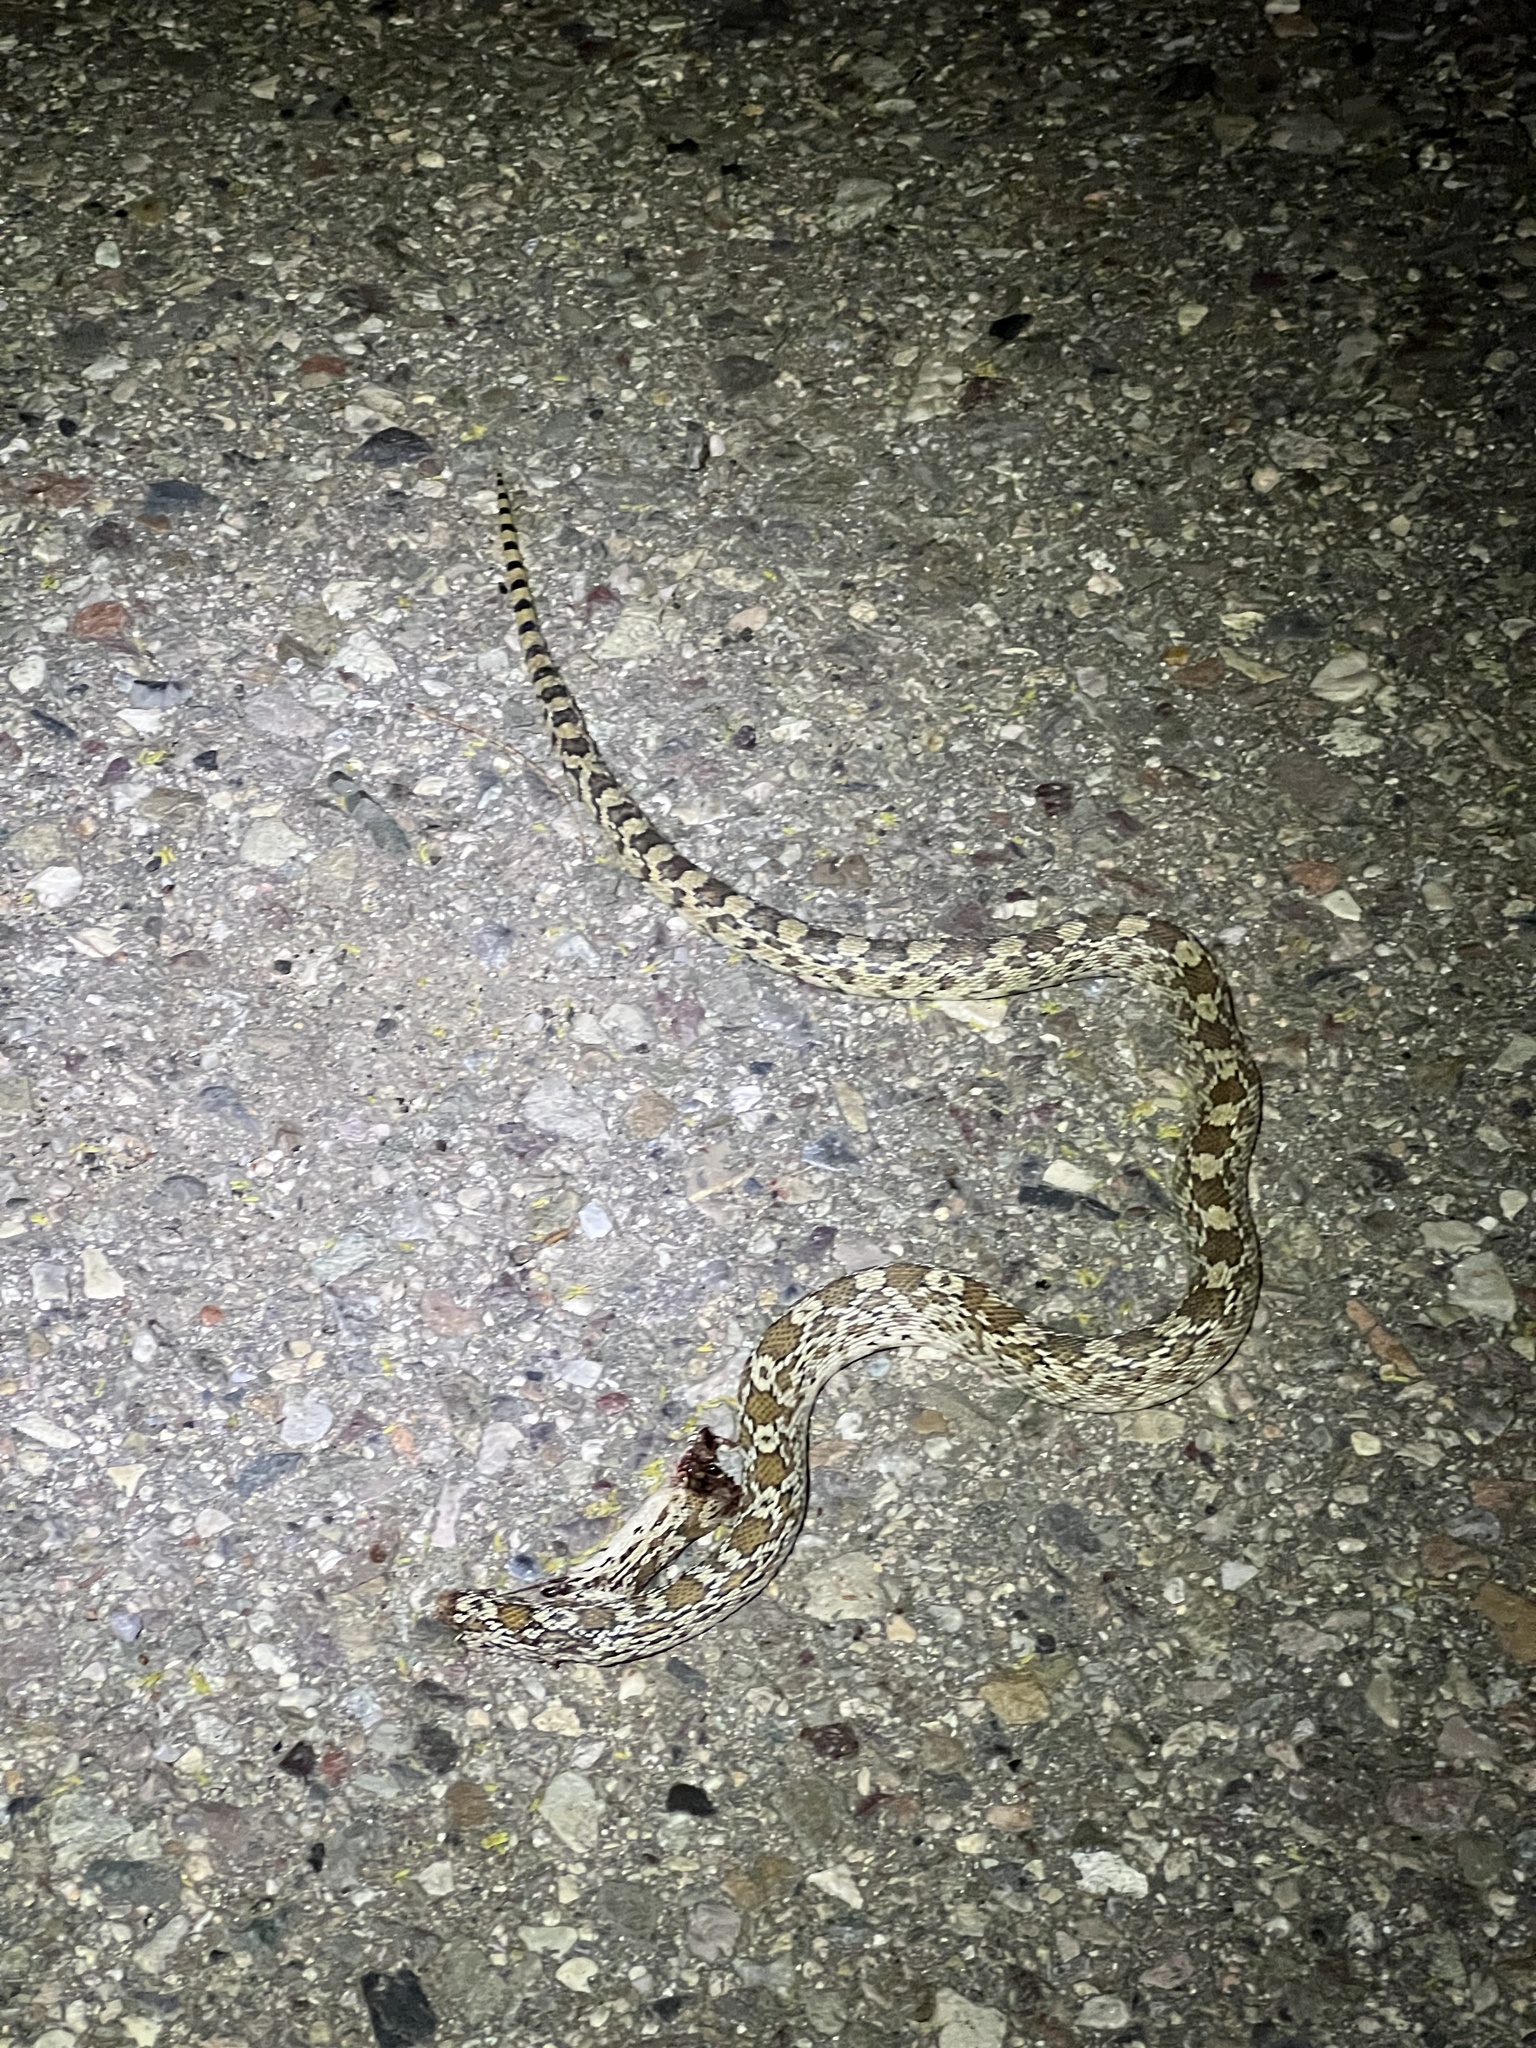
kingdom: Animalia
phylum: Chordata
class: Squamata
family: Colubridae
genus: Pituophis
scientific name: Pituophis catenifer
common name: Gopher snake
